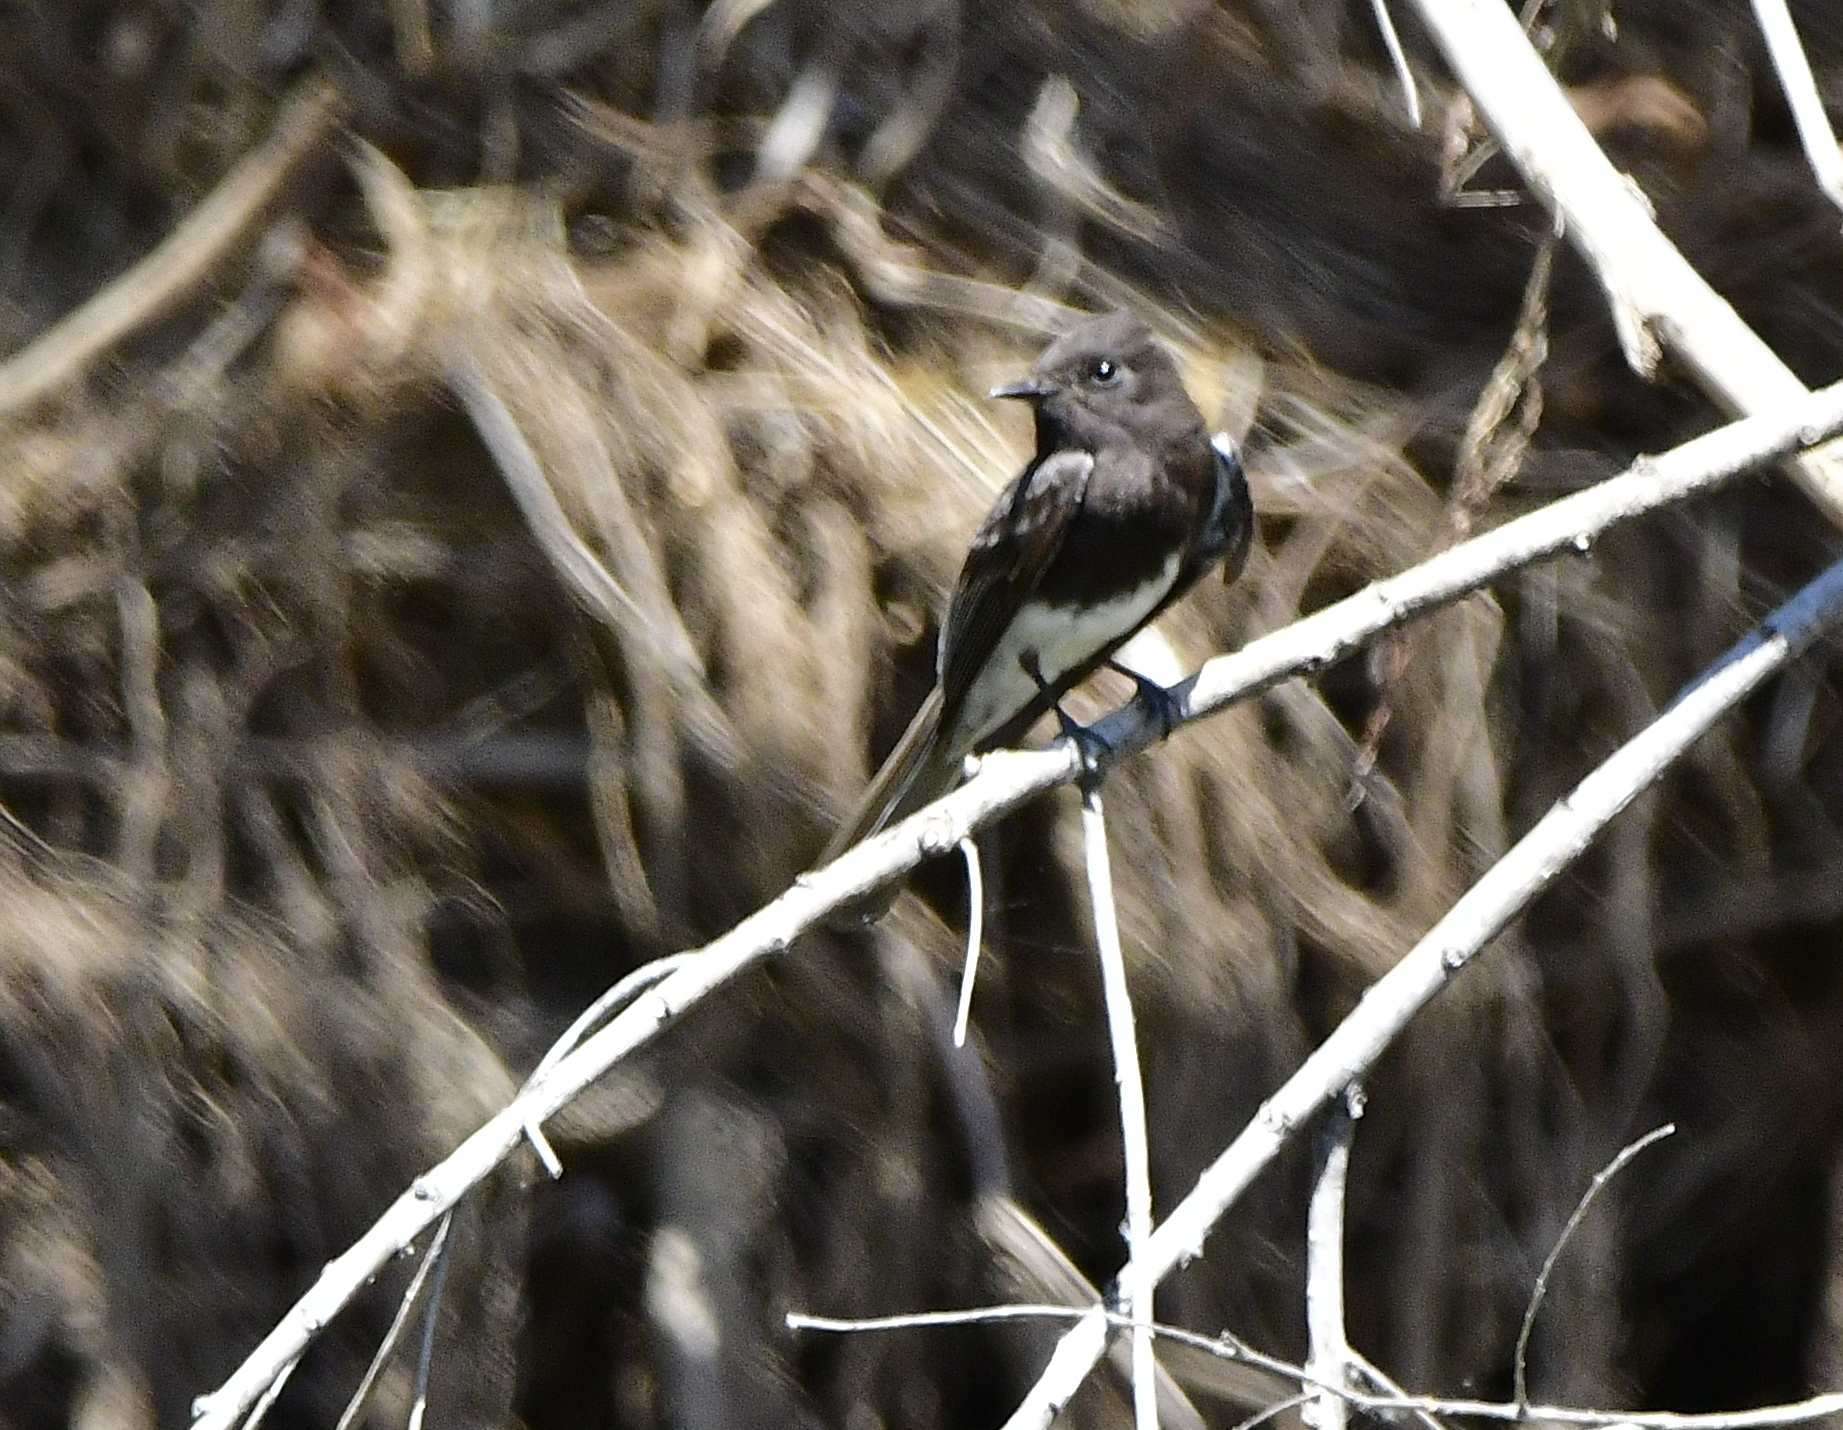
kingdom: Animalia
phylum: Chordata
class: Aves
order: Passeriformes
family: Tyrannidae
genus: Sayornis
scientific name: Sayornis nigricans
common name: Black phoebe
